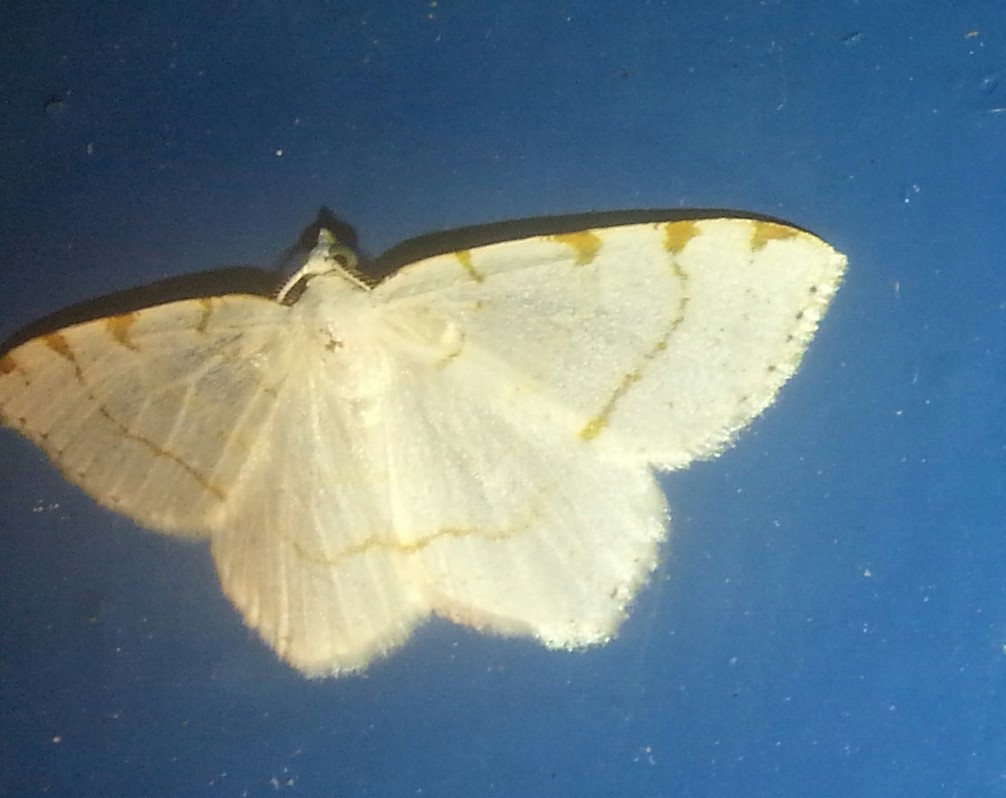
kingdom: Animalia
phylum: Arthropoda
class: Insecta
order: Lepidoptera
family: Geometridae
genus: Macaria
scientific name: Macaria pustularia
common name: Lesser maple spanworm moth
